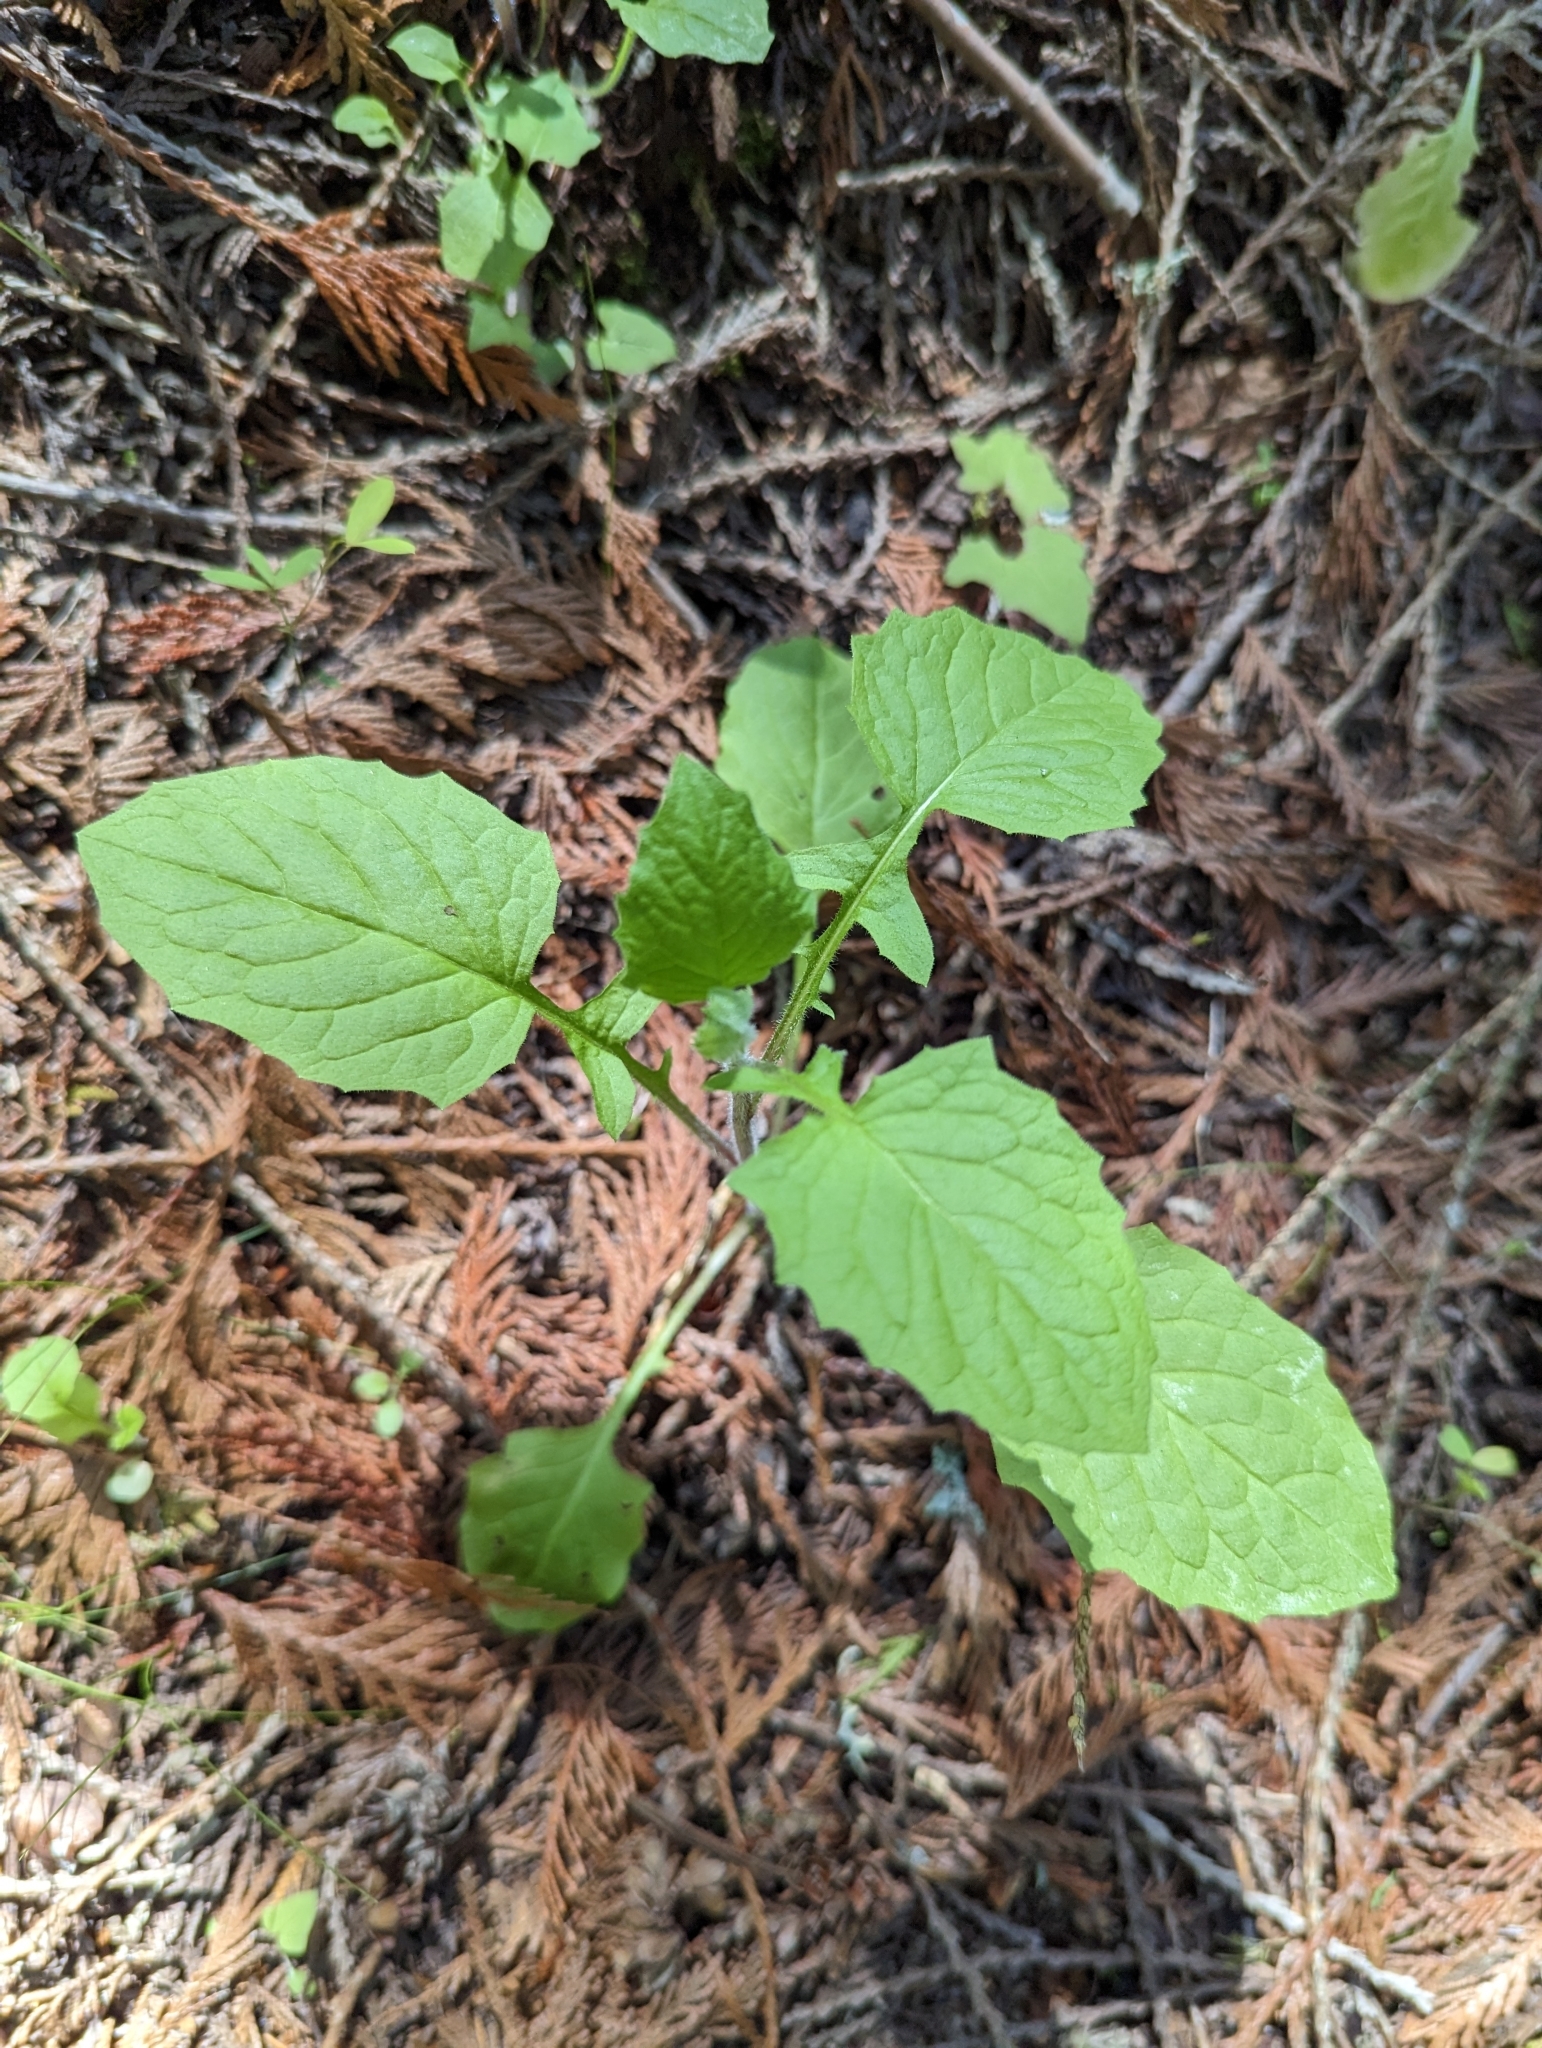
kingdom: Plantae
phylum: Tracheophyta
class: Magnoliopsida
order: Asterales
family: Asteraceae
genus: Lapsana
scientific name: Lapsana communis
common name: Nipplewort
